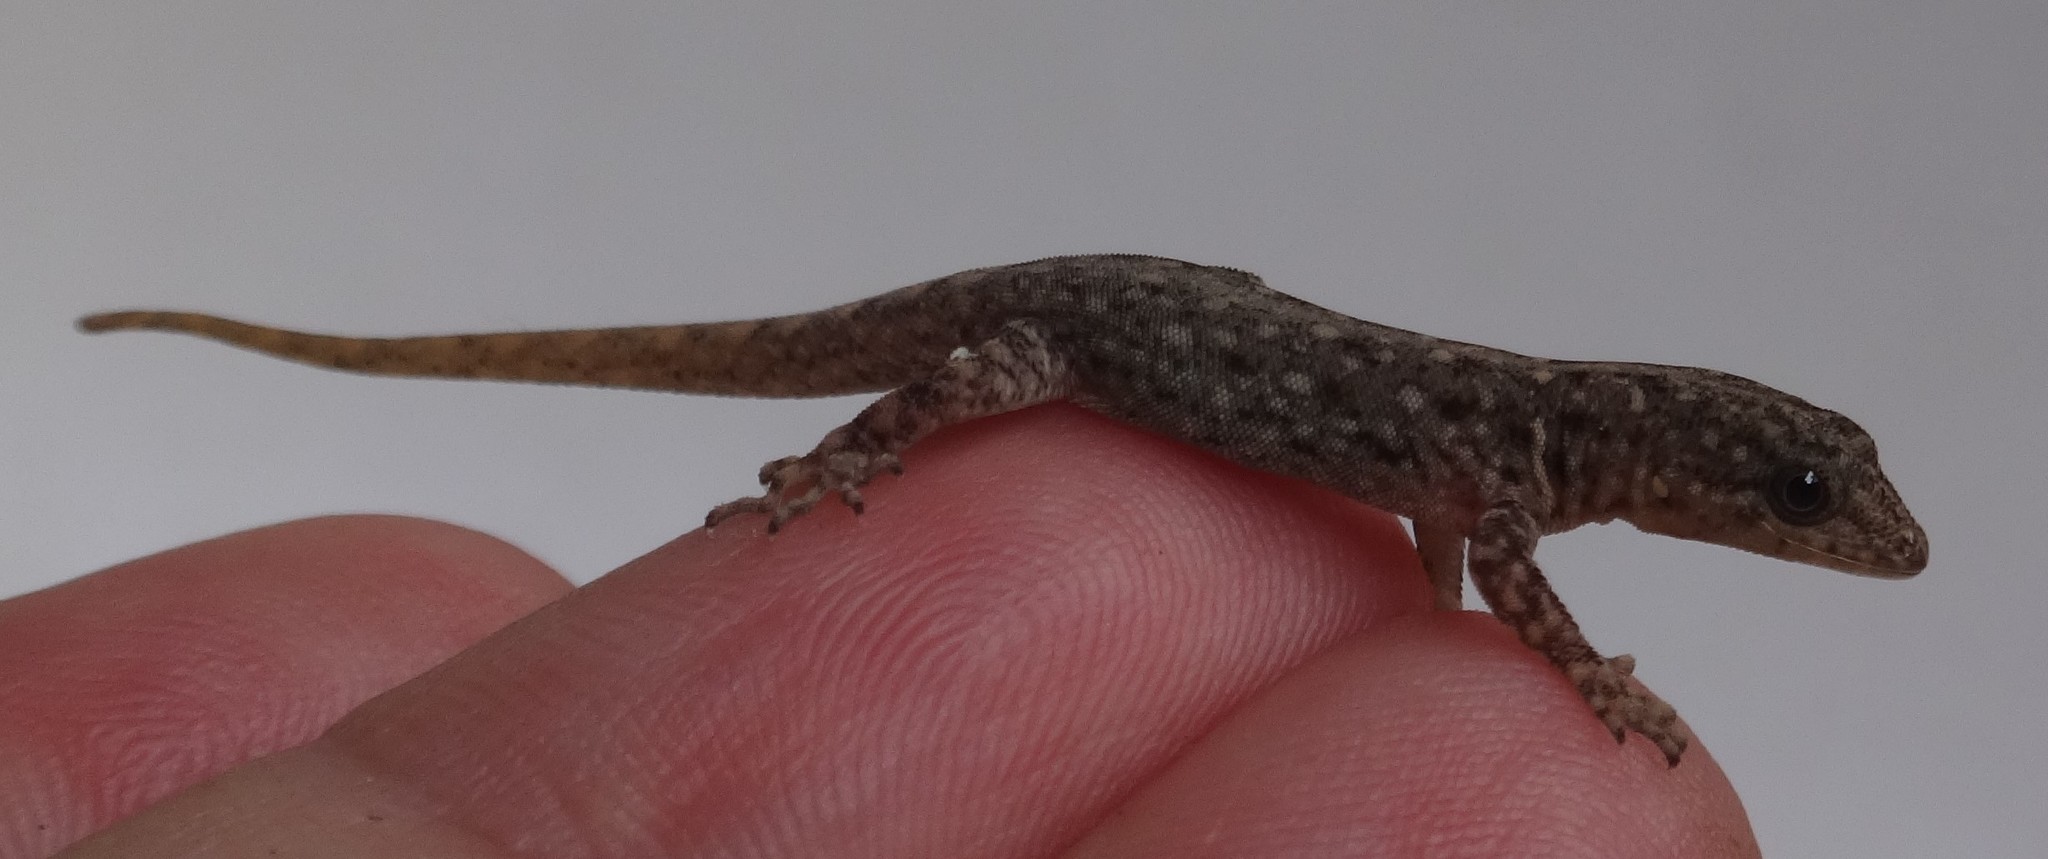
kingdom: Animalia
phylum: Chordata
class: Squamata
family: Sphaerodactylidae
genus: Gonatodes
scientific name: Gonatodes vittatus
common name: Wiegmann's striped gecko
